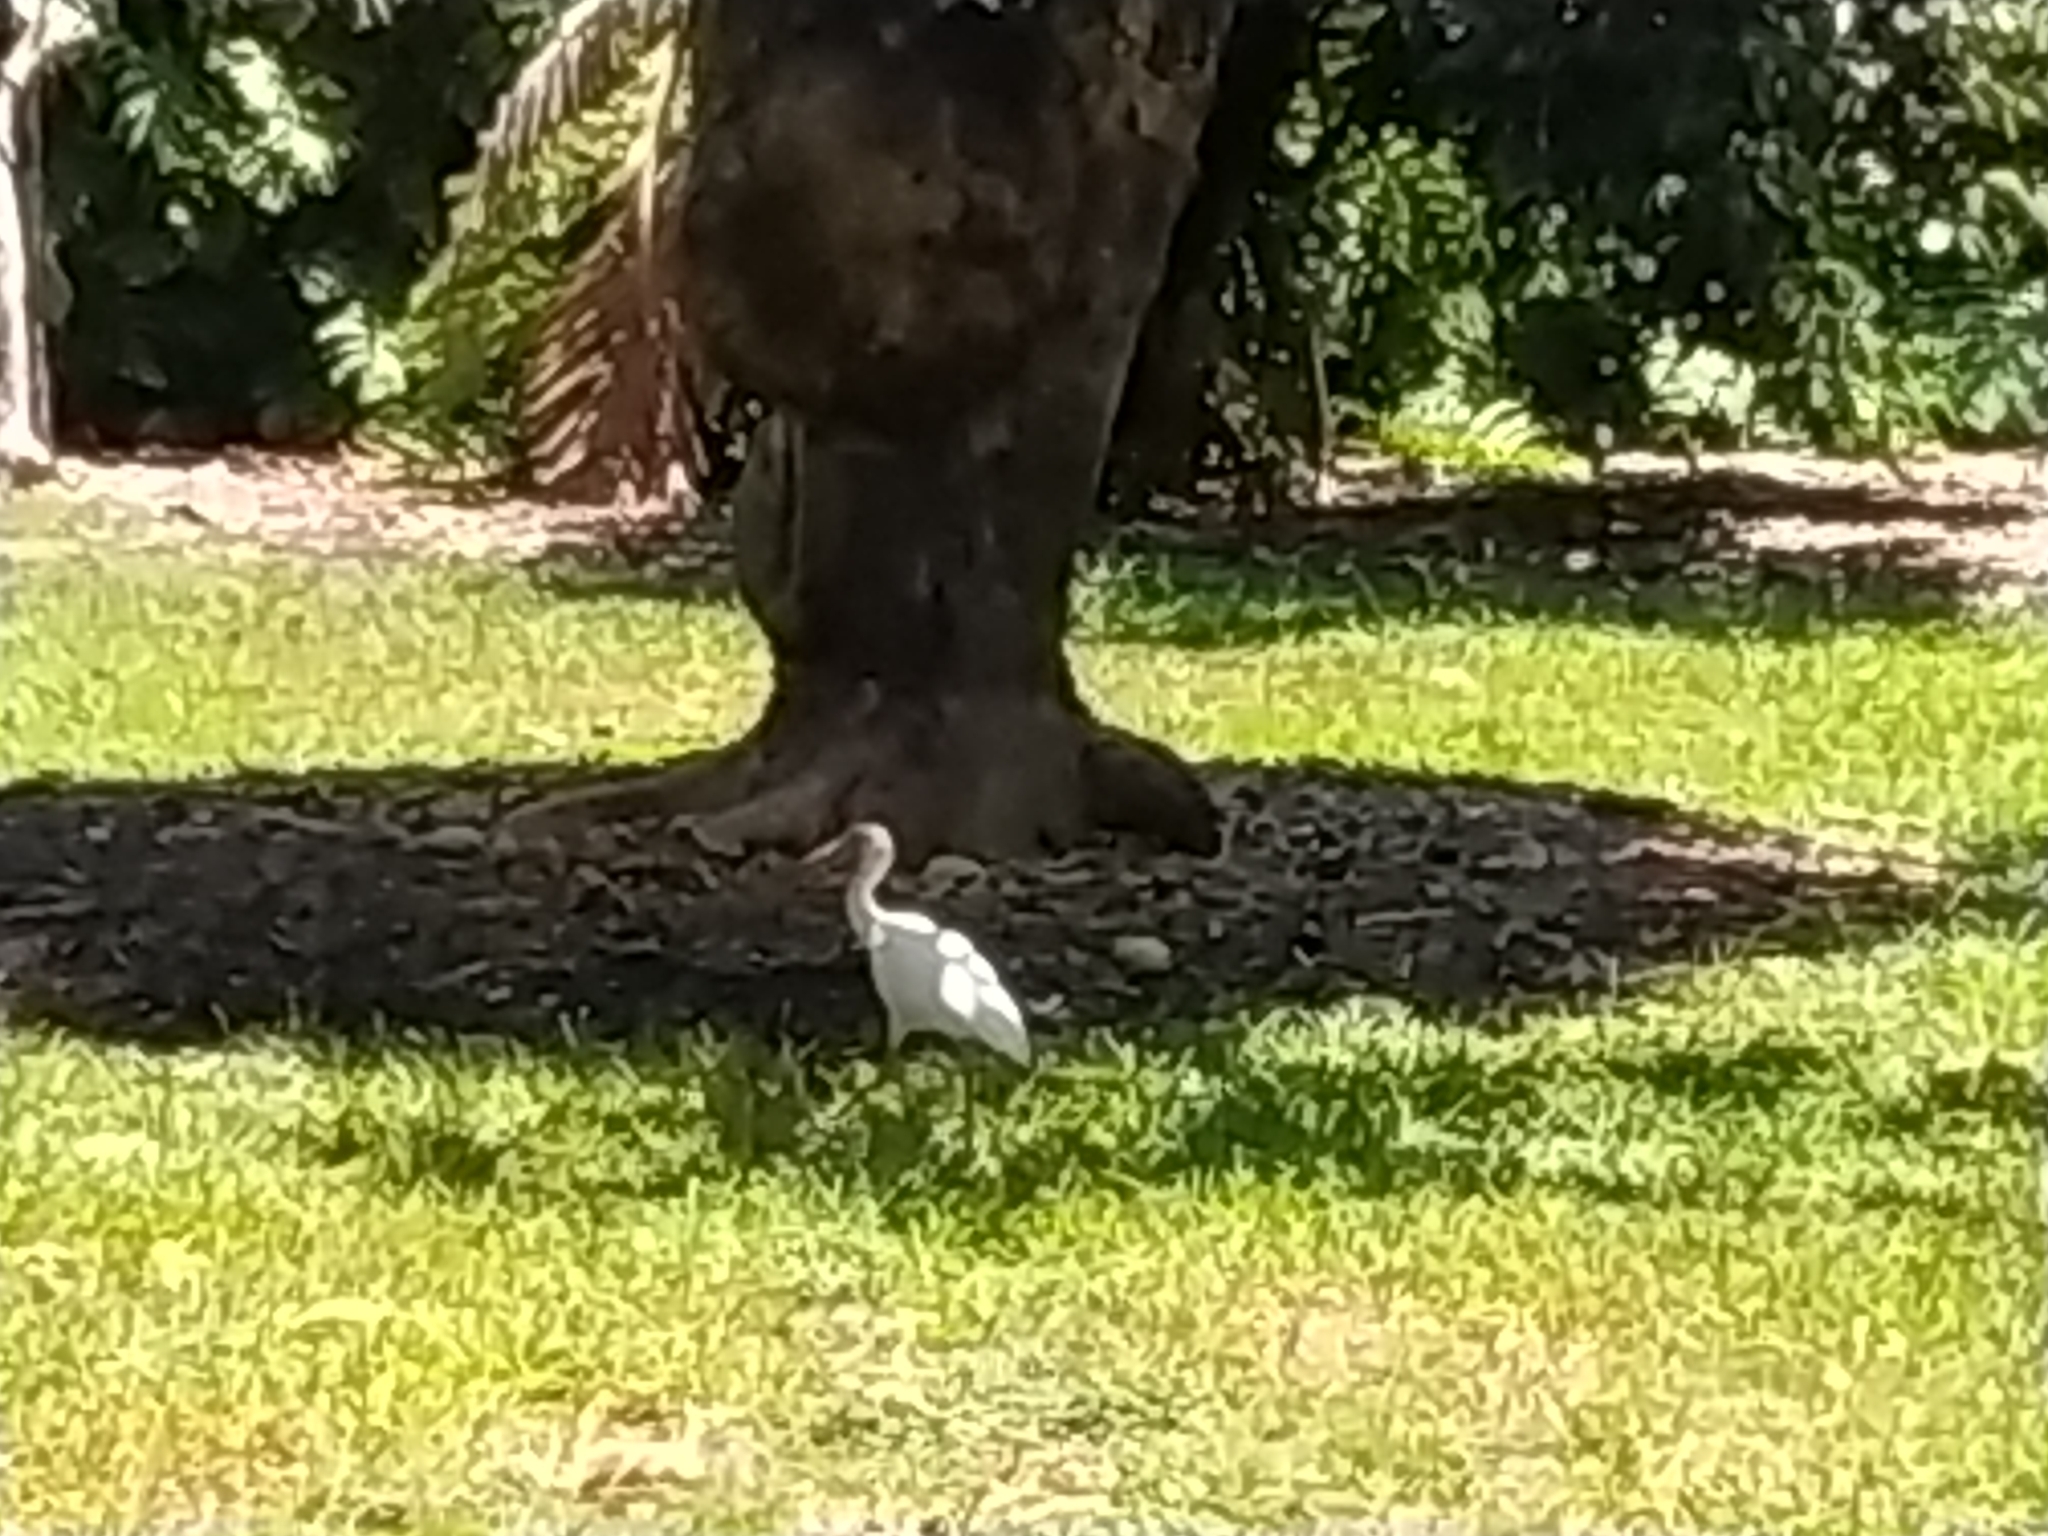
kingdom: Animalia
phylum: Chordata
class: Aves
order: Ciconiiformes
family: Ciconiidae
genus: Mycteria
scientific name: Mycteria americana
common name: Wood stork
